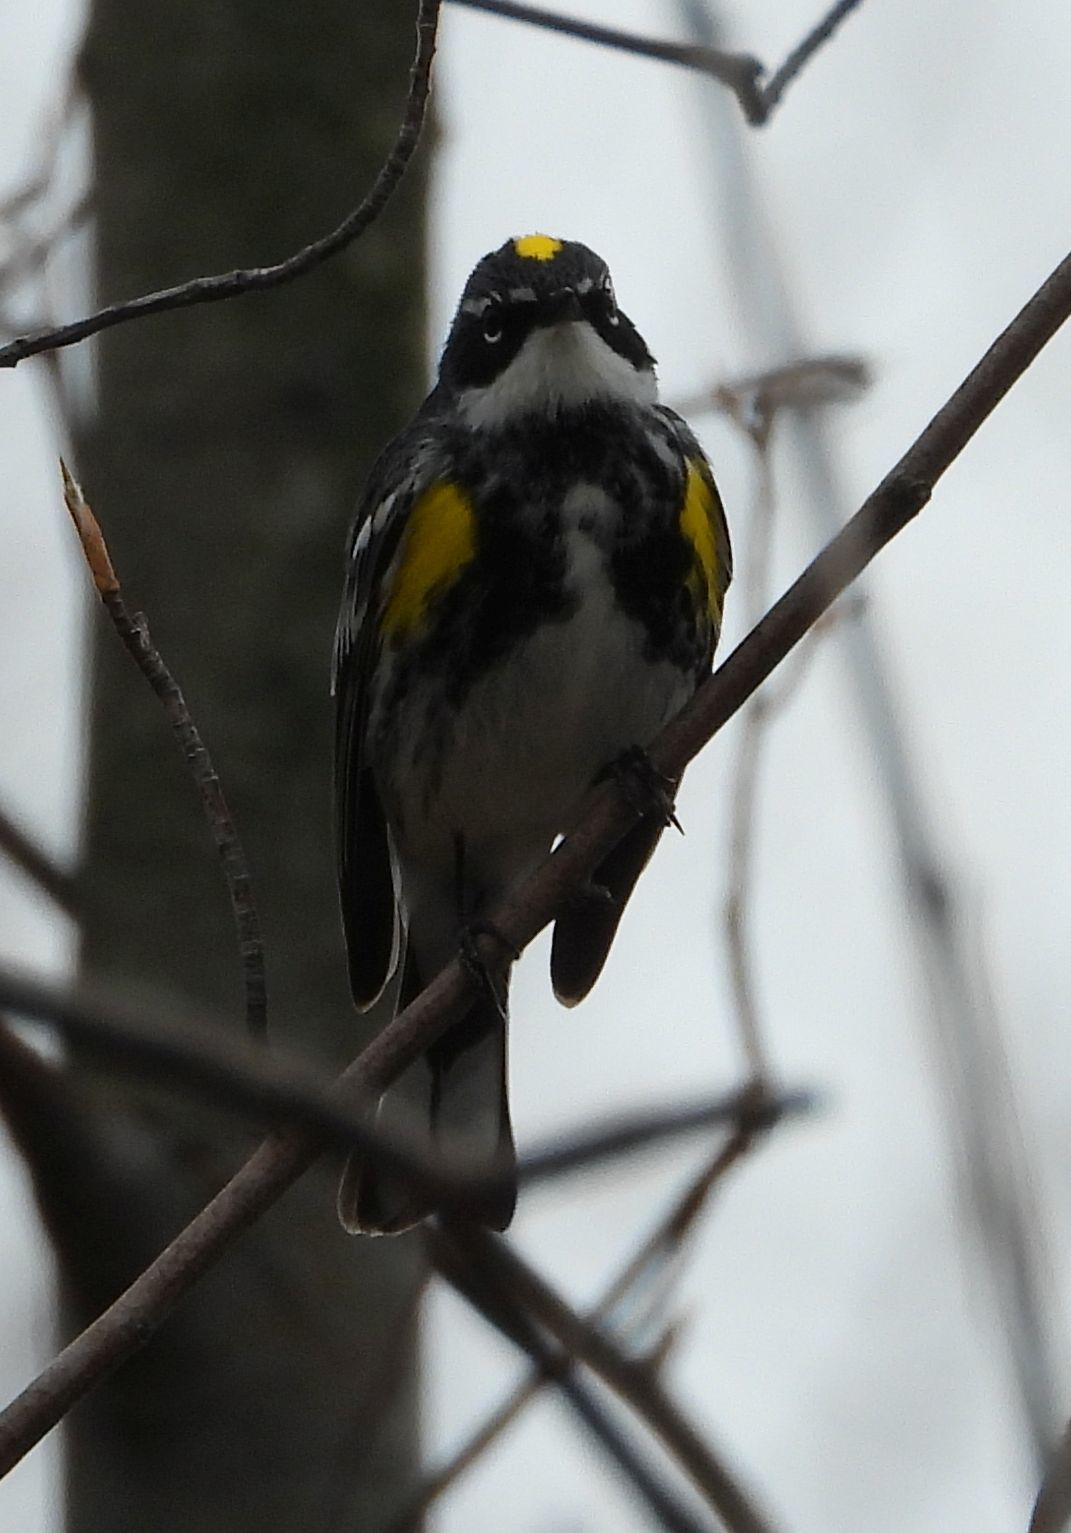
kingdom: Animalia
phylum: Chordata
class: Aves
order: Passeriformes
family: Parulidae
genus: Setophaga
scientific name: Setophaga coronata
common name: Myrtle warbler
